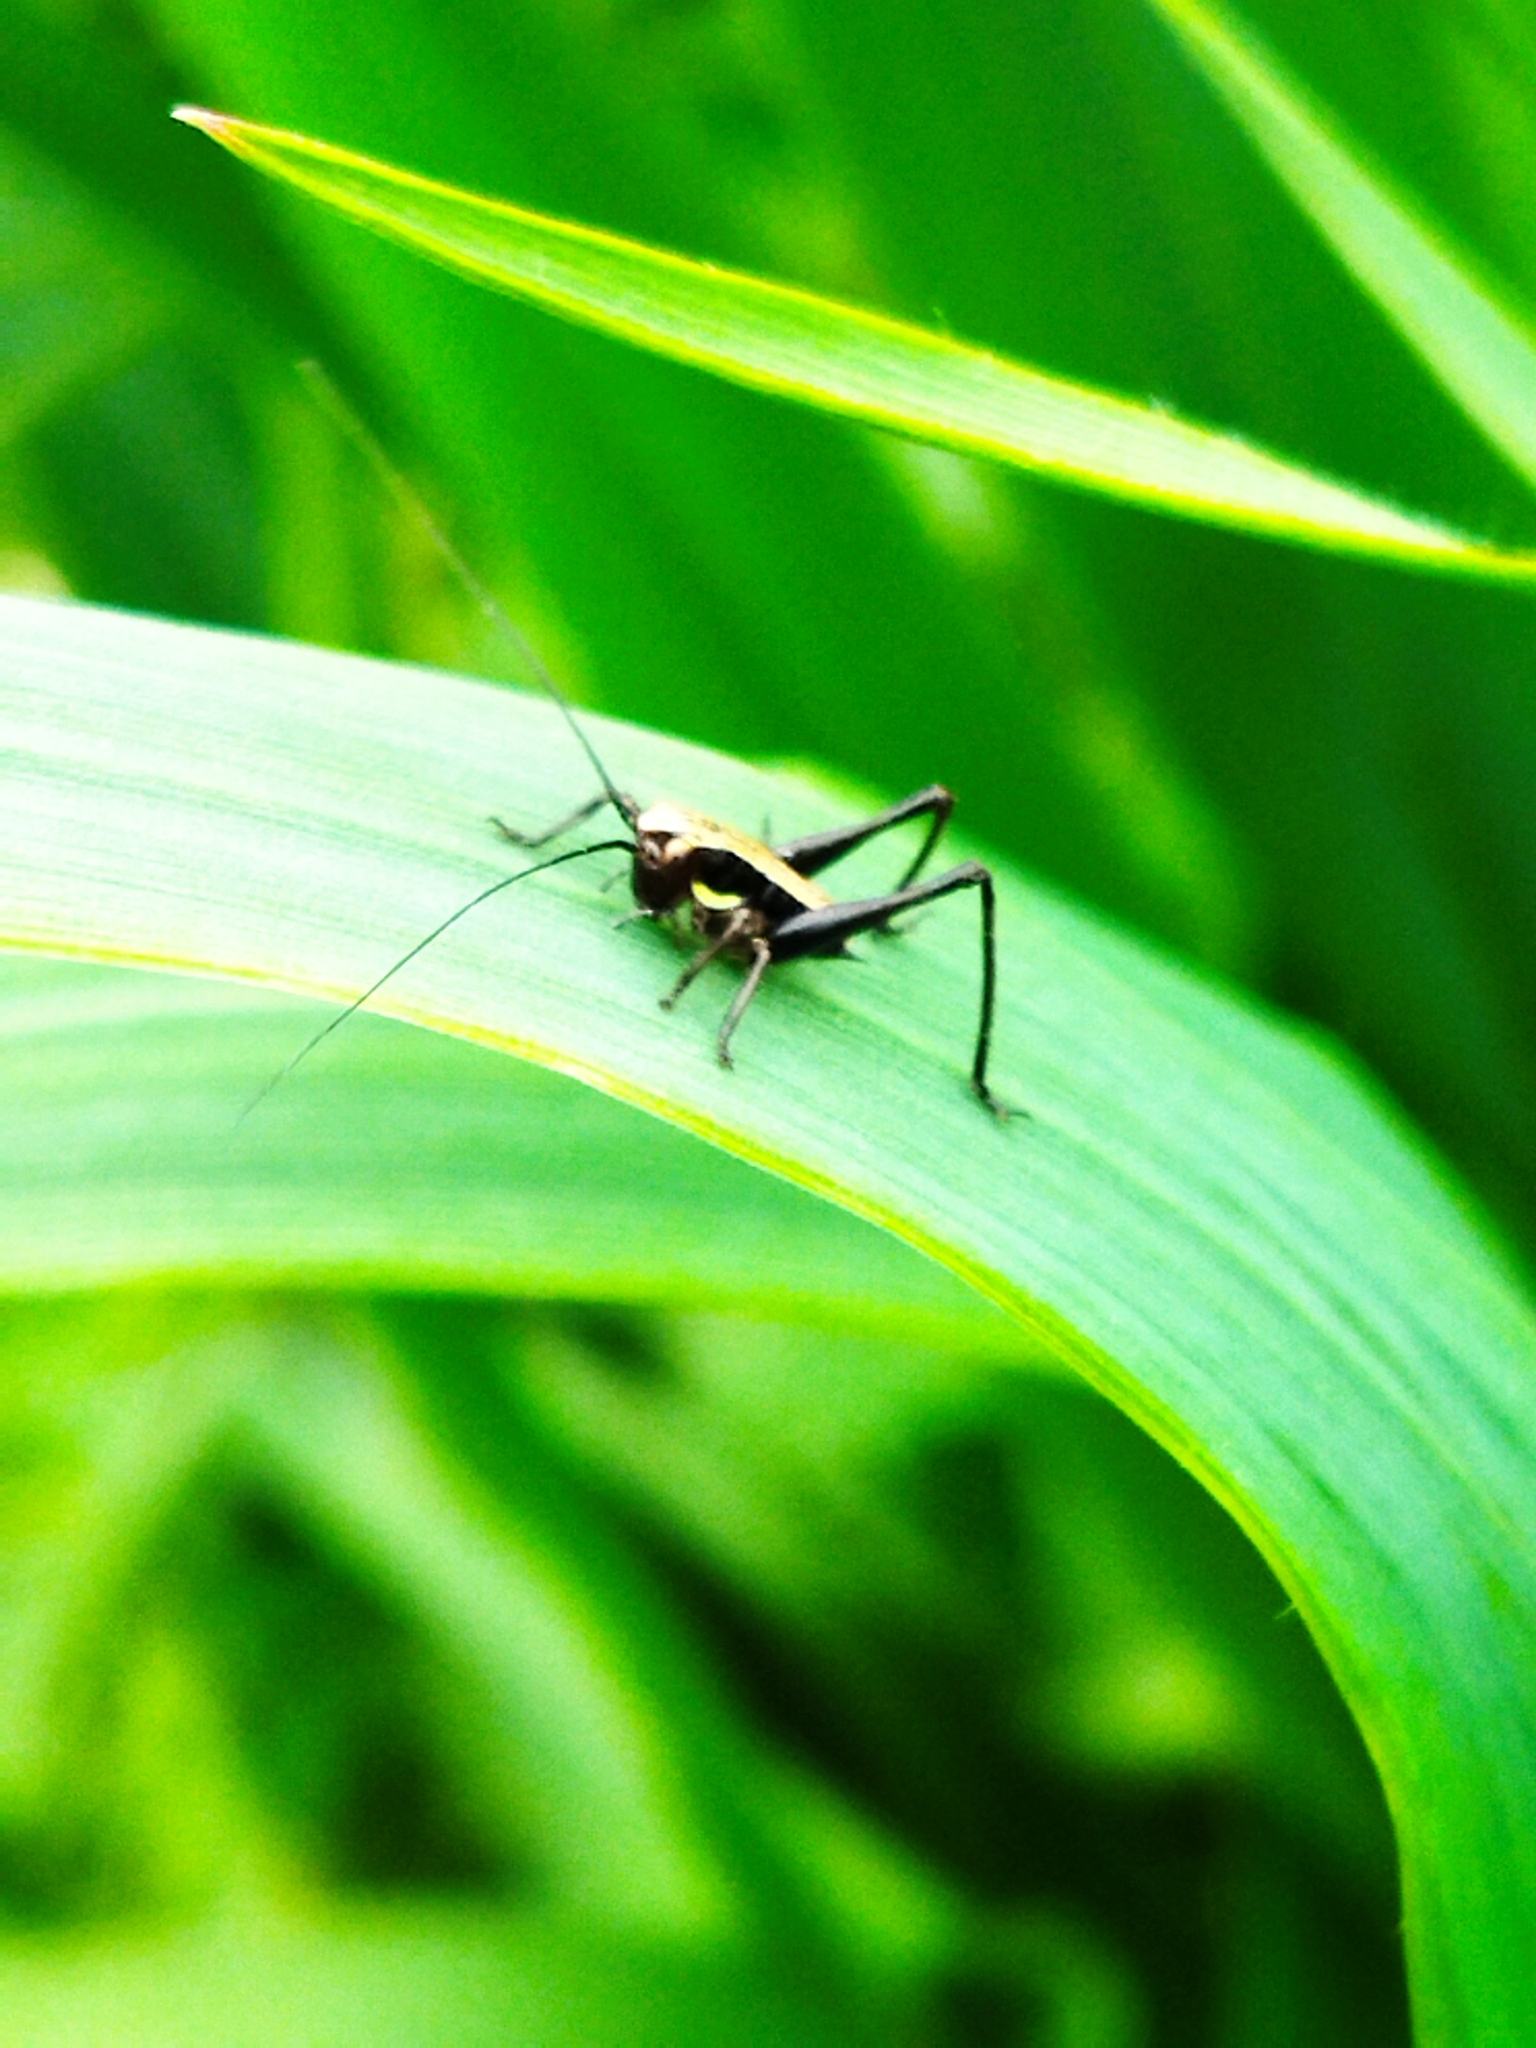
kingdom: Animalia
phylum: Arthropoda
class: Insecta
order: Orthoptera
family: Tettigoniidae
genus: Pholidoptera
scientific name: Pholidoptera griseoaptera
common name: Dark bush-cricket
